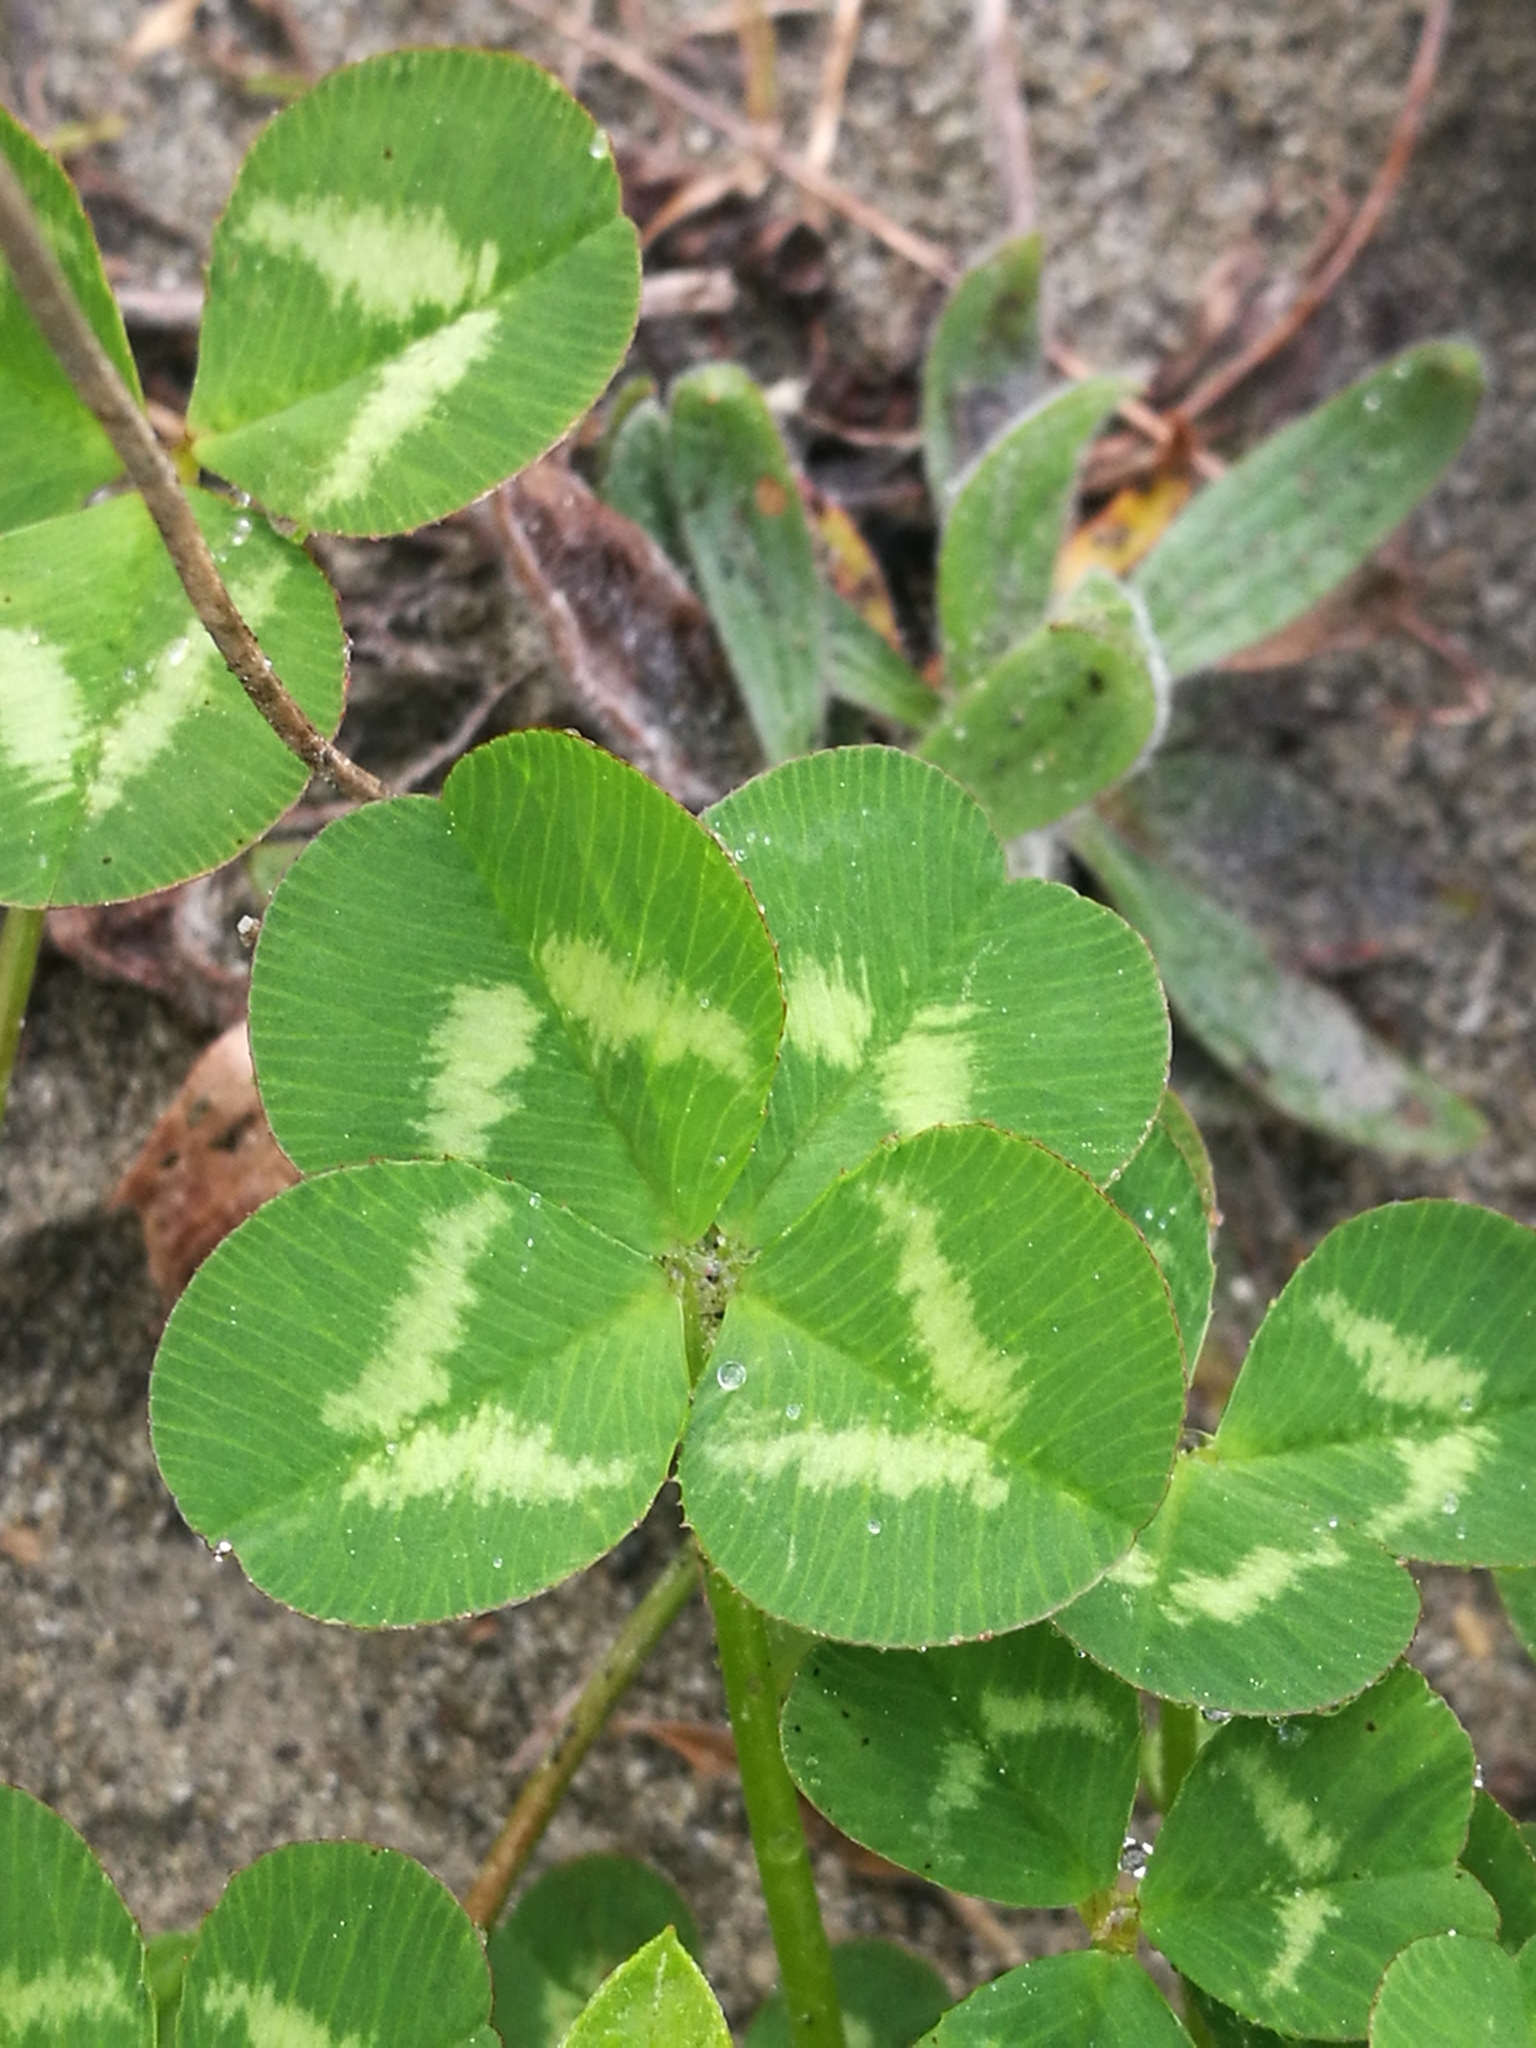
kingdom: Plantae
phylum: Tracheophyta
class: Magnoliopsida
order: Fabales
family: Fabaceae
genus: Trifolium
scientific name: Trifolium repens
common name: White clover
